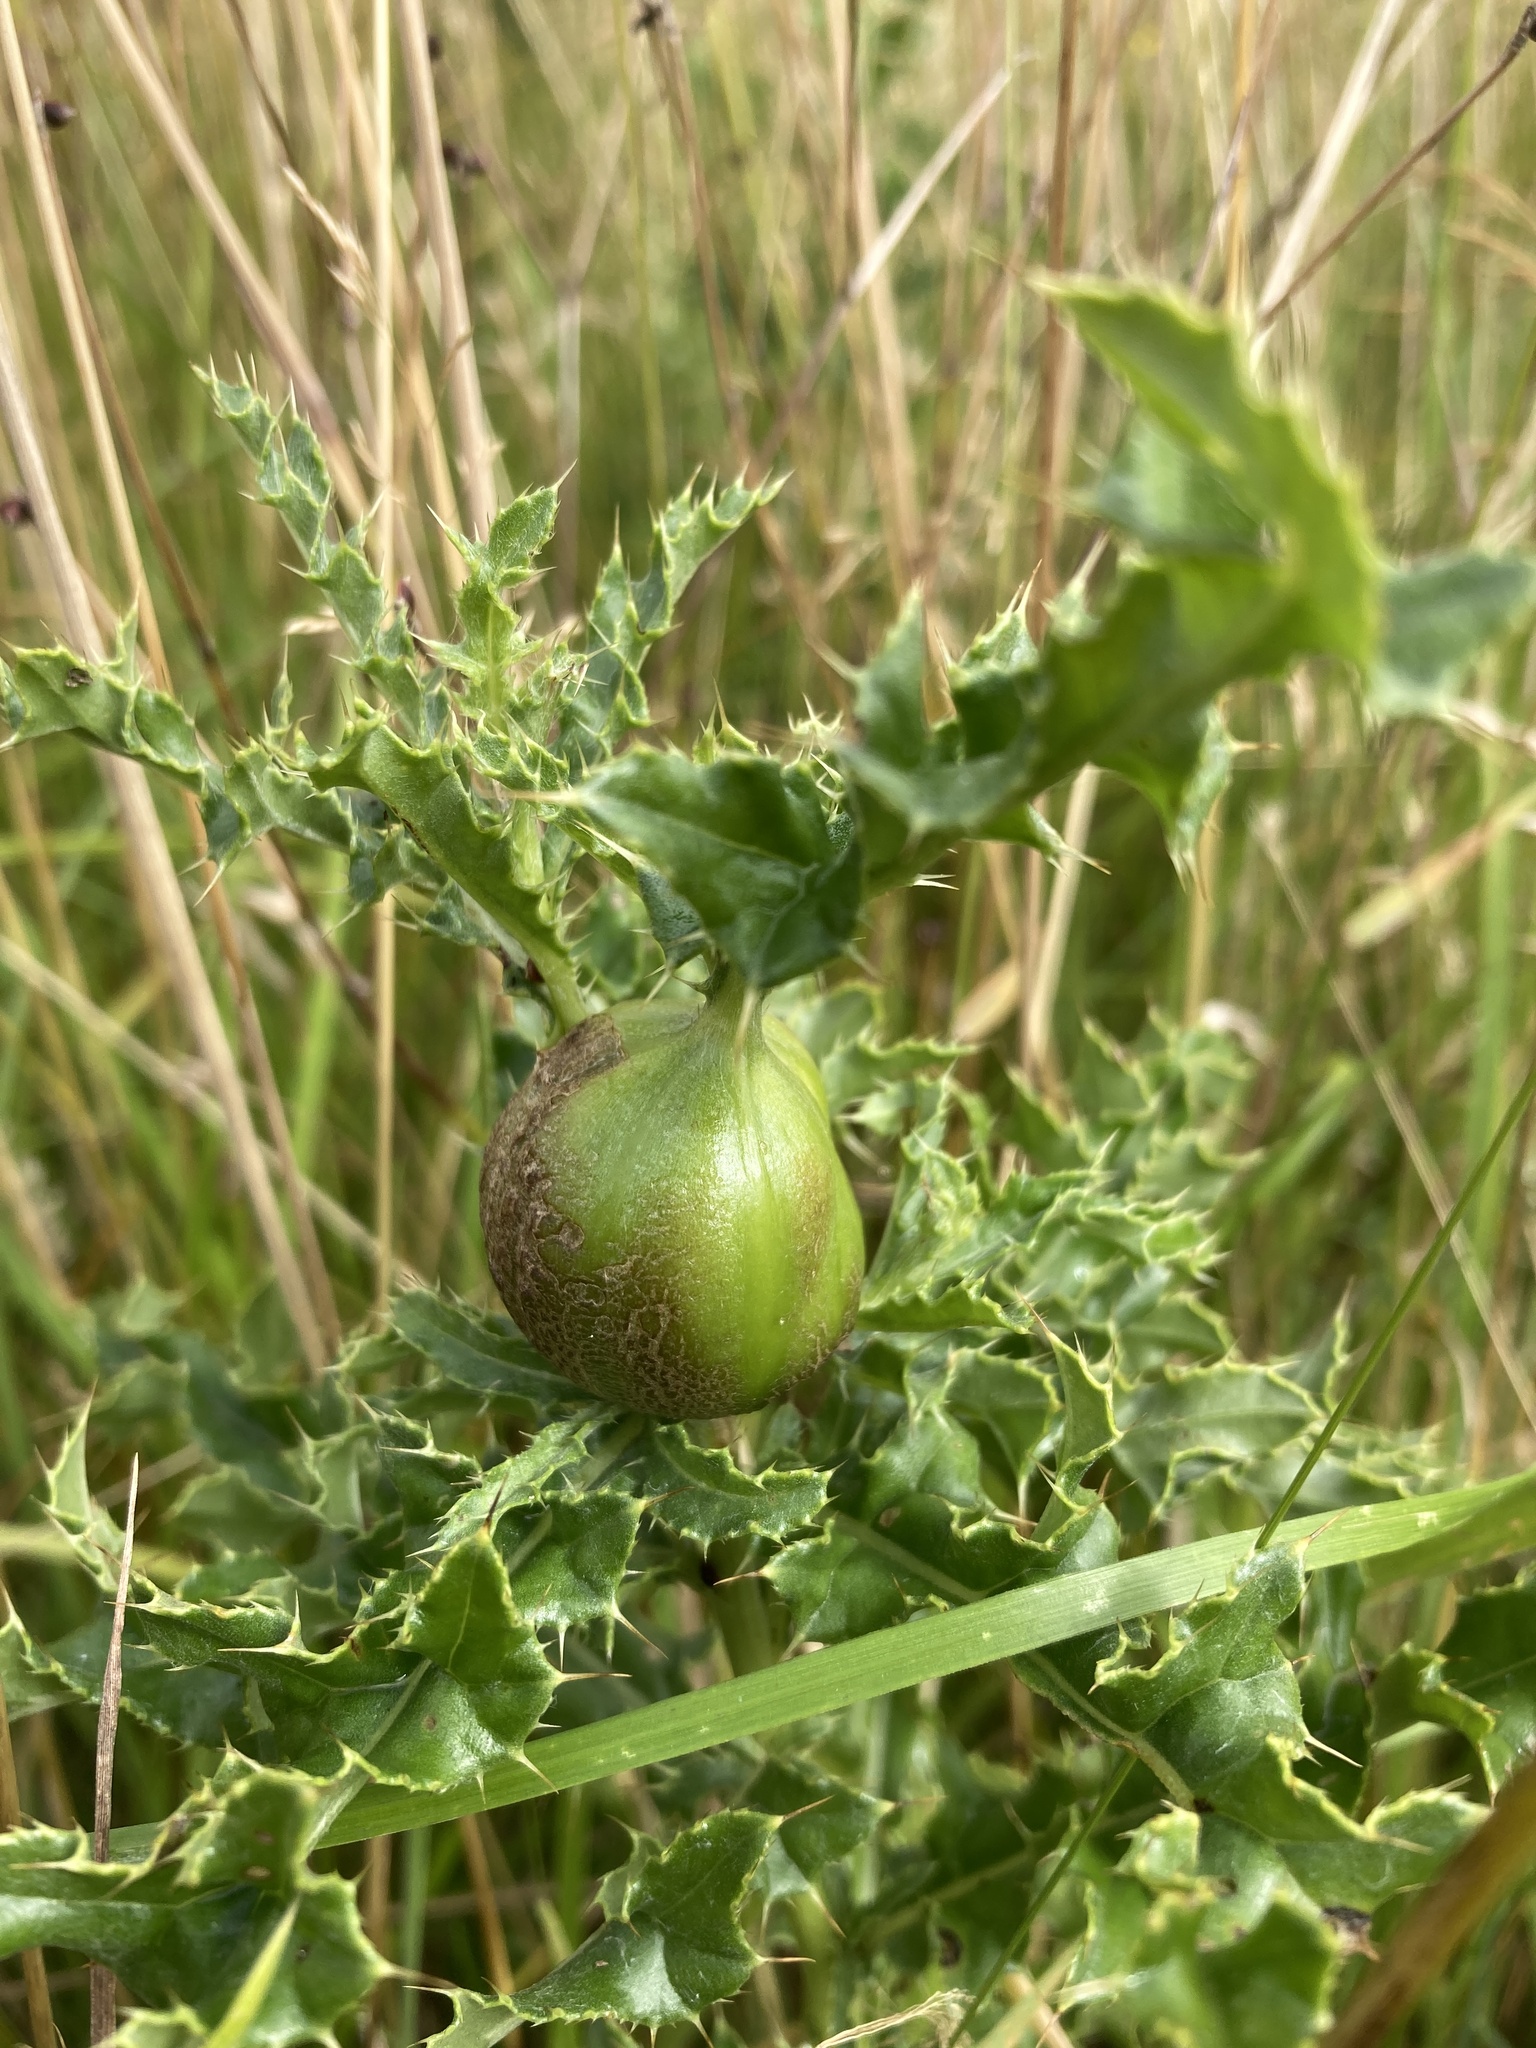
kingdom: Animalia
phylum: Arthropoda
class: Insecta
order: Diptera
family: Tephritidae
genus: Urophora
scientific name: Urophora cardui
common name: Fruit fly
